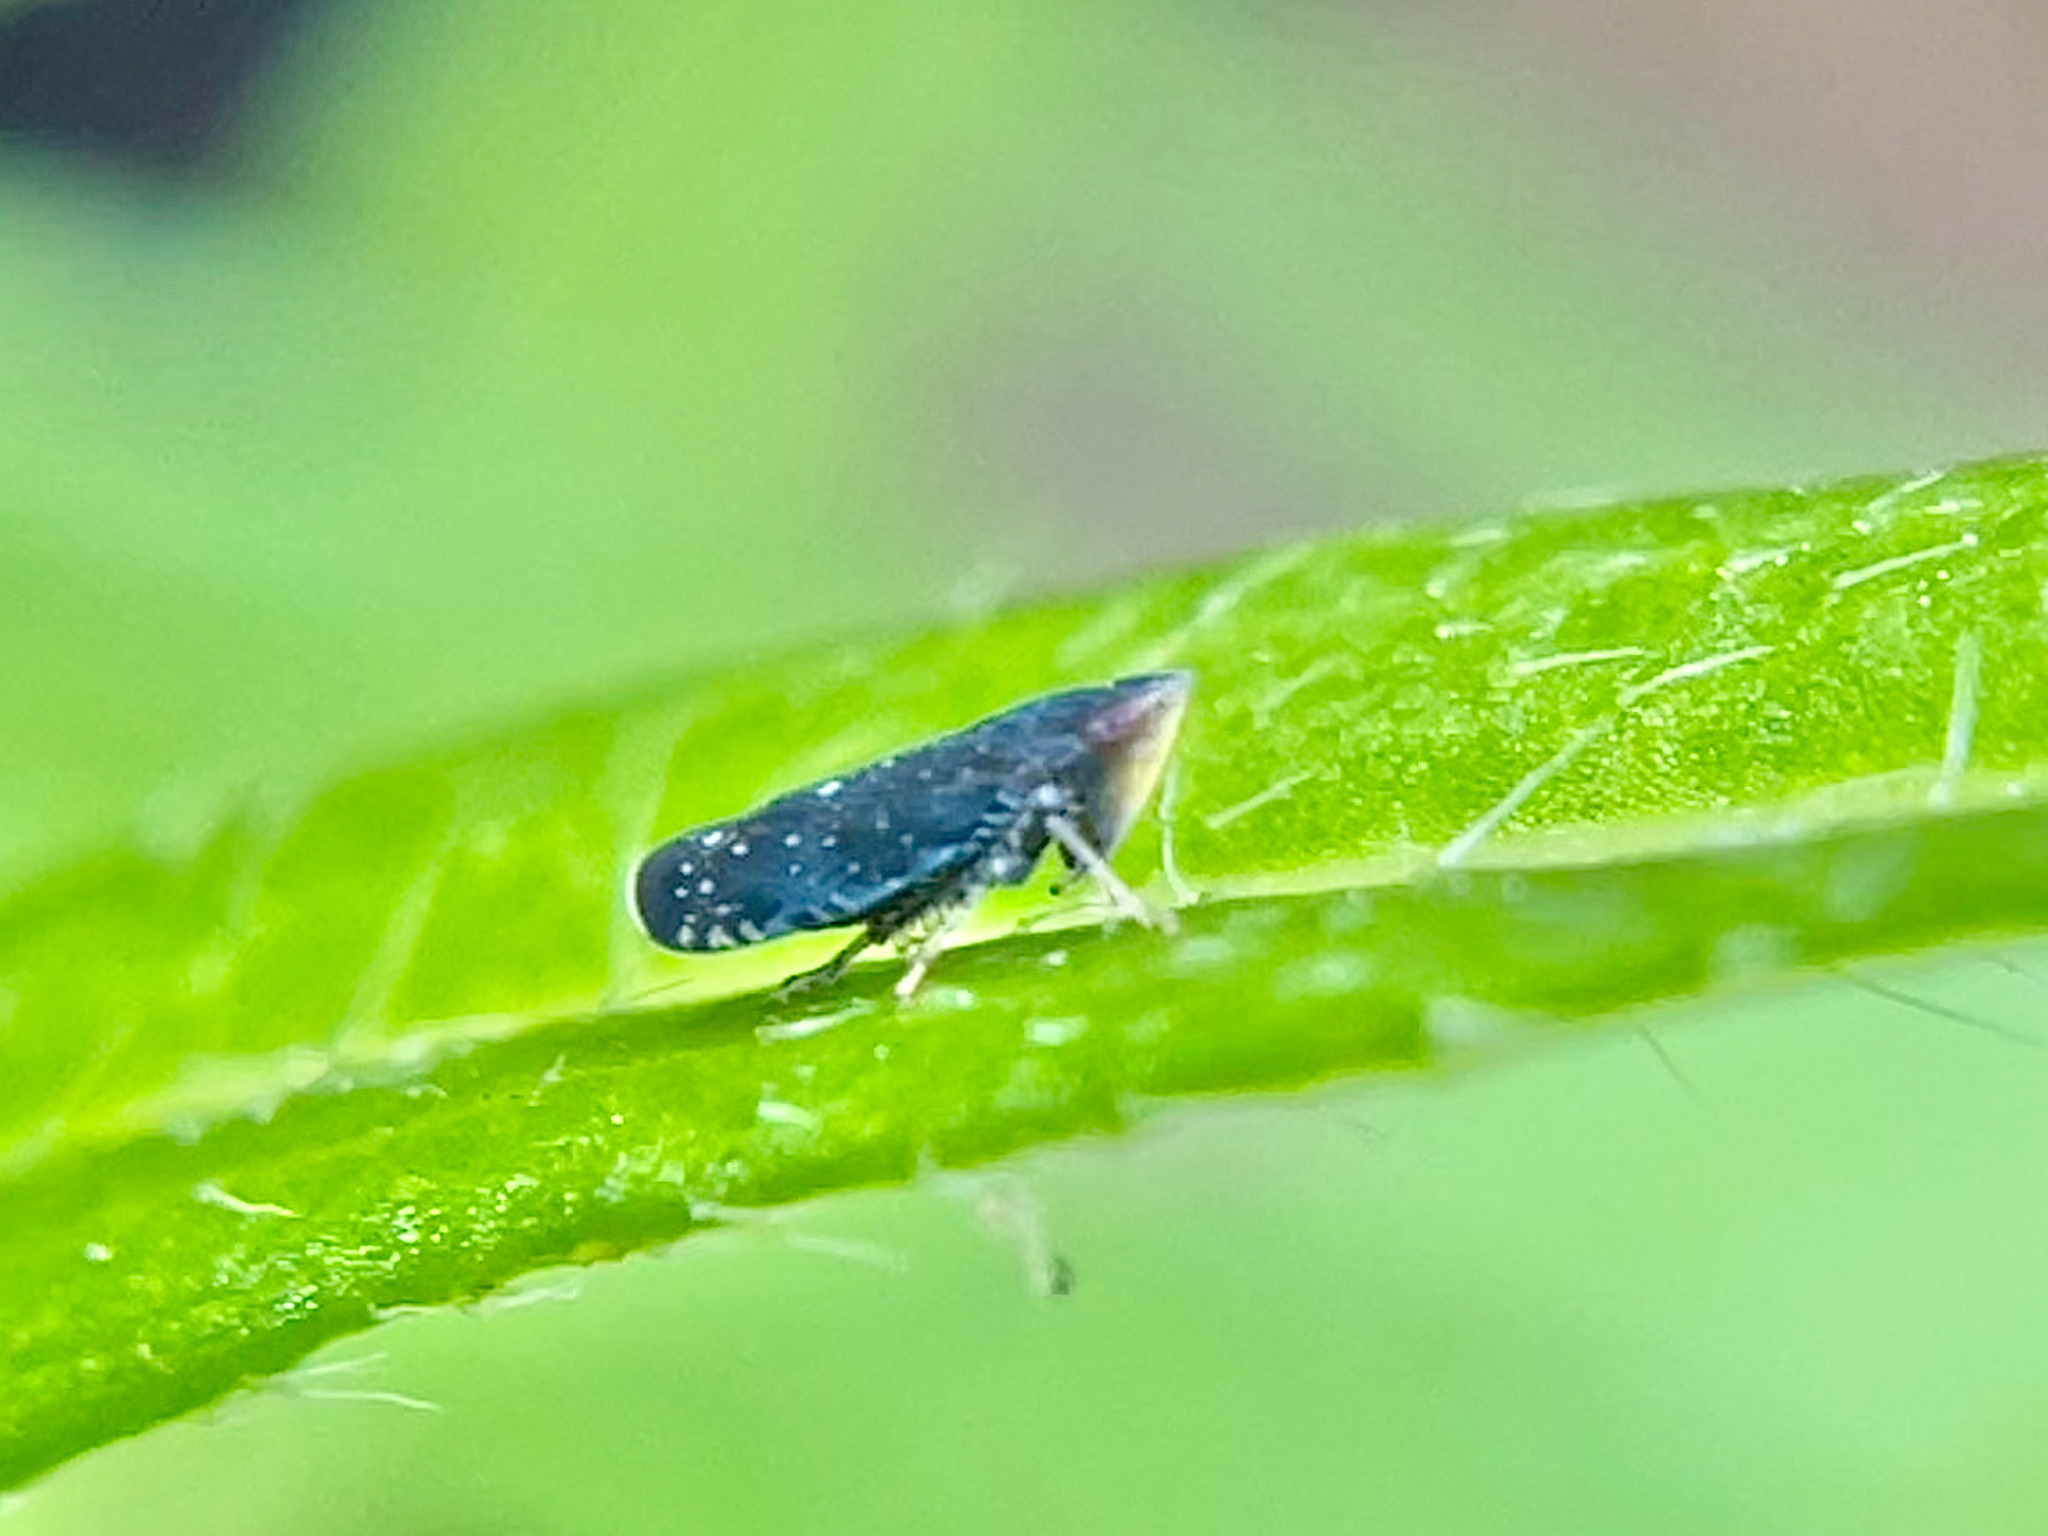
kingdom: Animalia
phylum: Arthropoda
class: Insecta
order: Hemiptera
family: Cicadellidae
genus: Scaphytopius
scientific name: Scaphytopius frontalis
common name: The yellow-faced leafhopper
